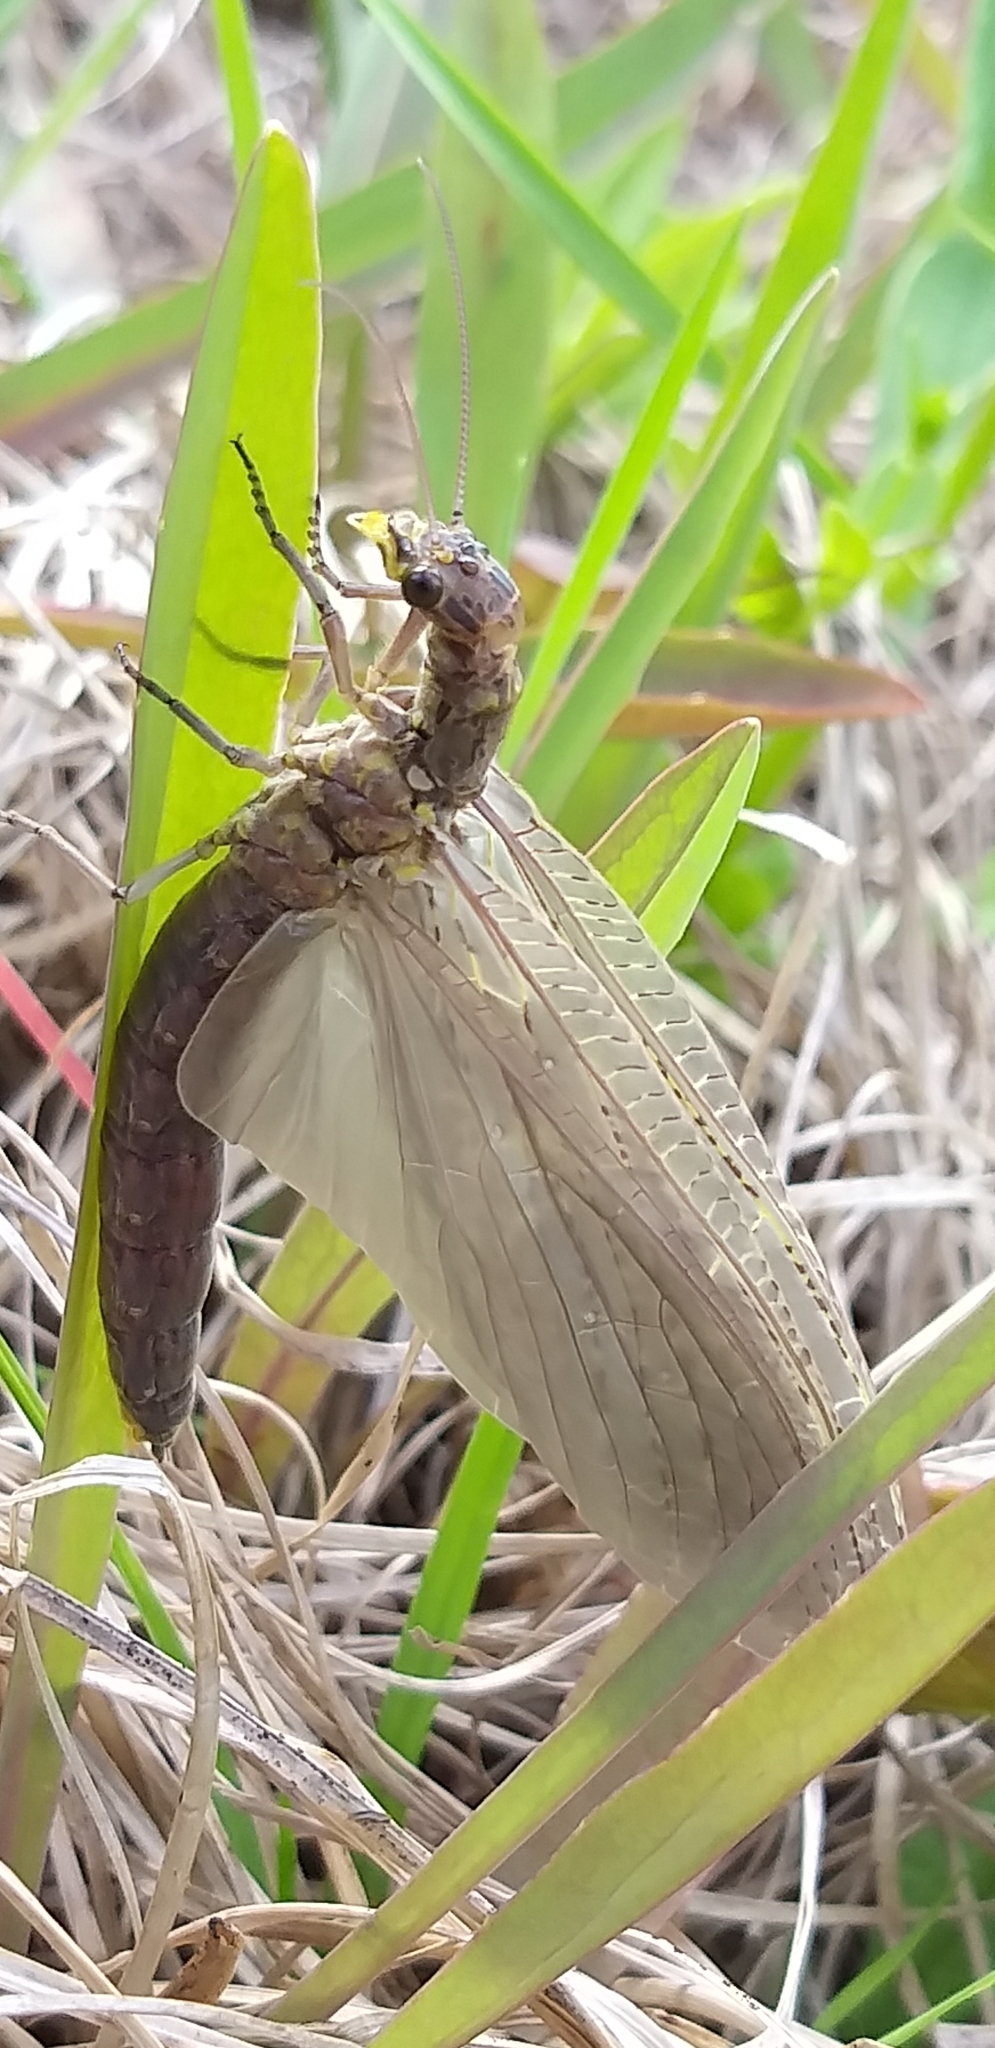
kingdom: Animalia
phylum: Arthropoda
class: Insecta
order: Megaloptera
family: Corydalidae
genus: Chauliodes
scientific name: Chauliodes rastricornis
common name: Spring fishfly
